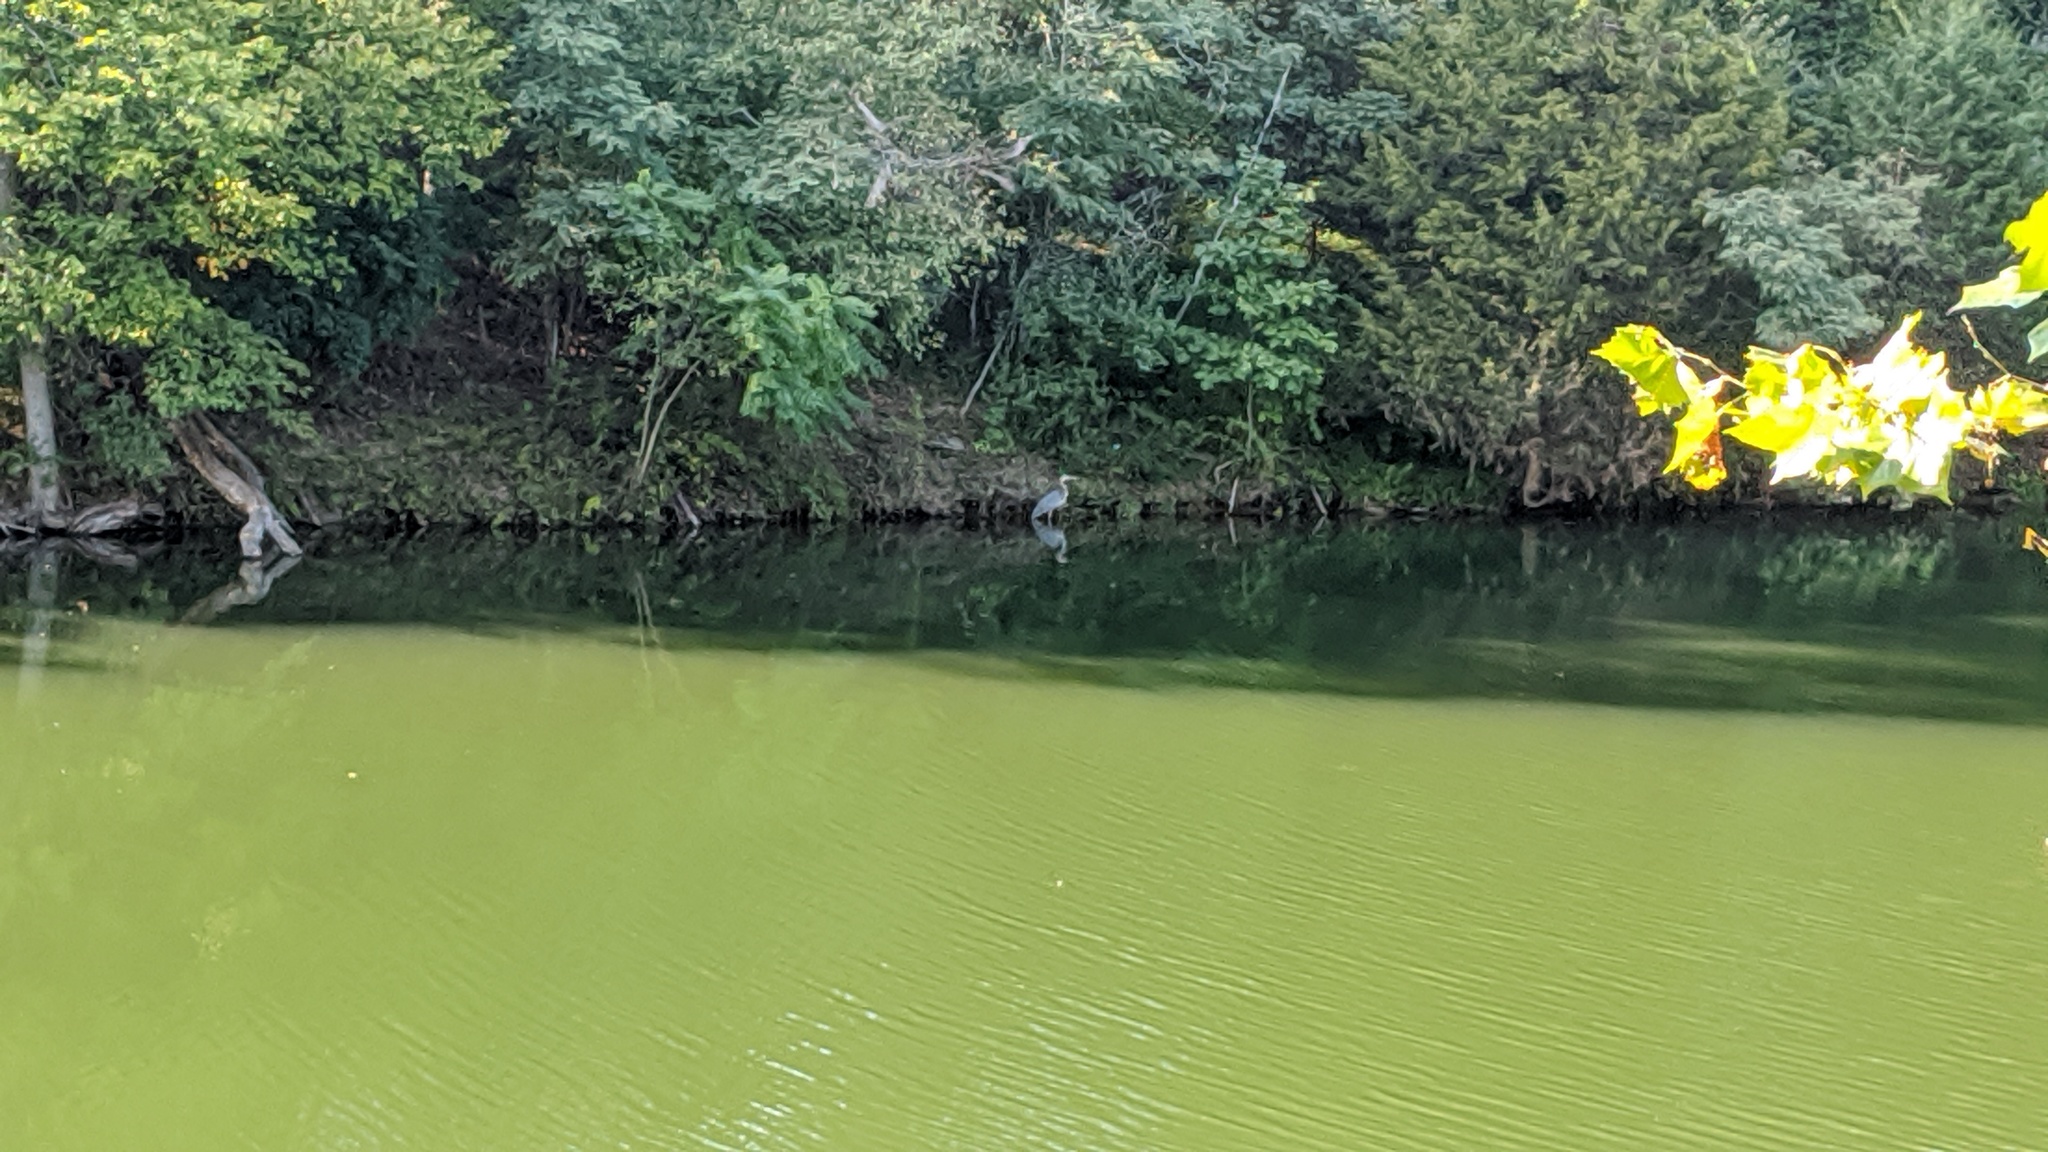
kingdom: Animalia
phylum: Chordata
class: Aves
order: Pelecaniformes
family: Ardeidae
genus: Ardea
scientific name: Ardea herodias
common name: Great blue heron
